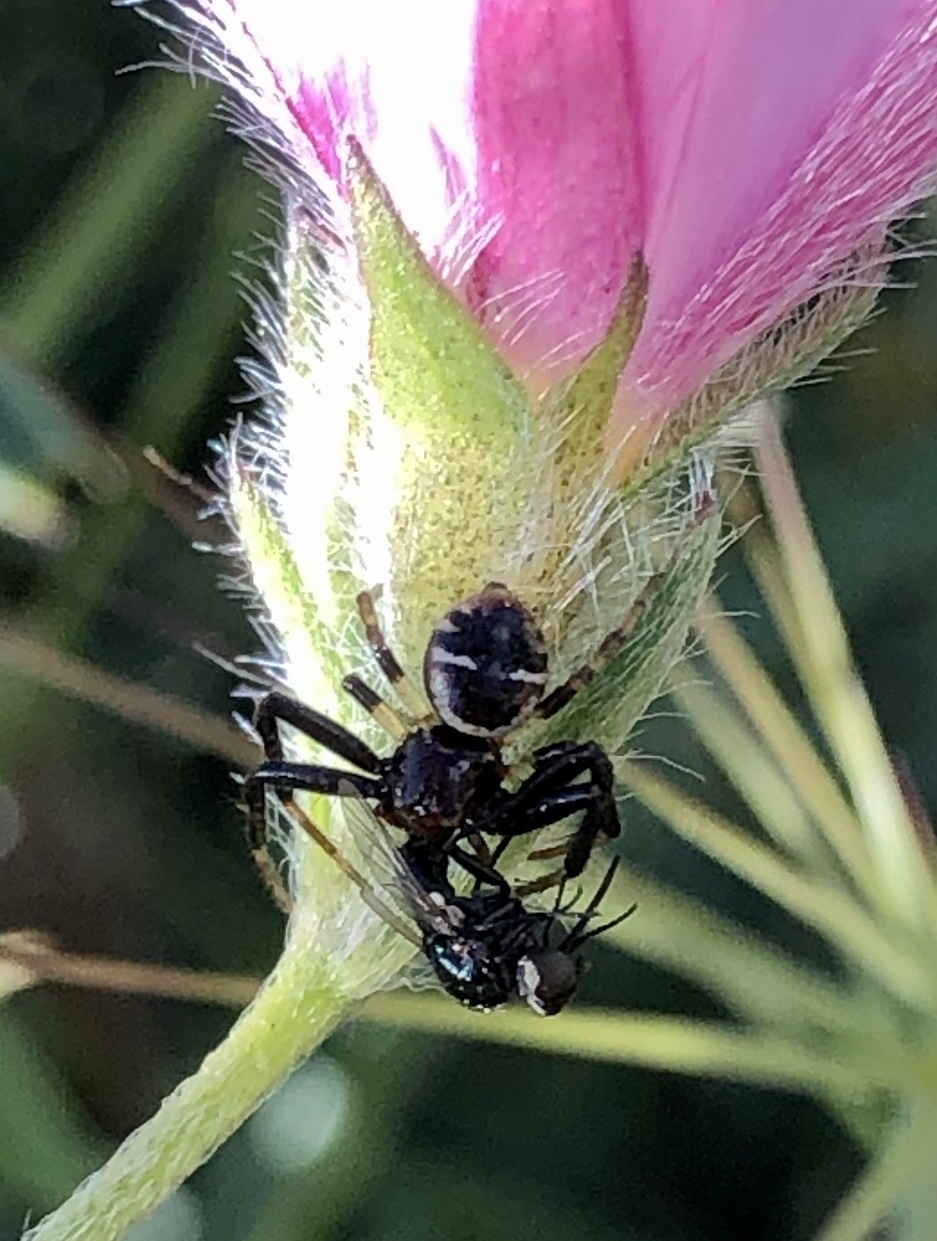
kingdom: Animalia
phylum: Arthropoda
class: Arachnida
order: Araneae
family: Thomisidae
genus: Synema
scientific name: Synema globosum
